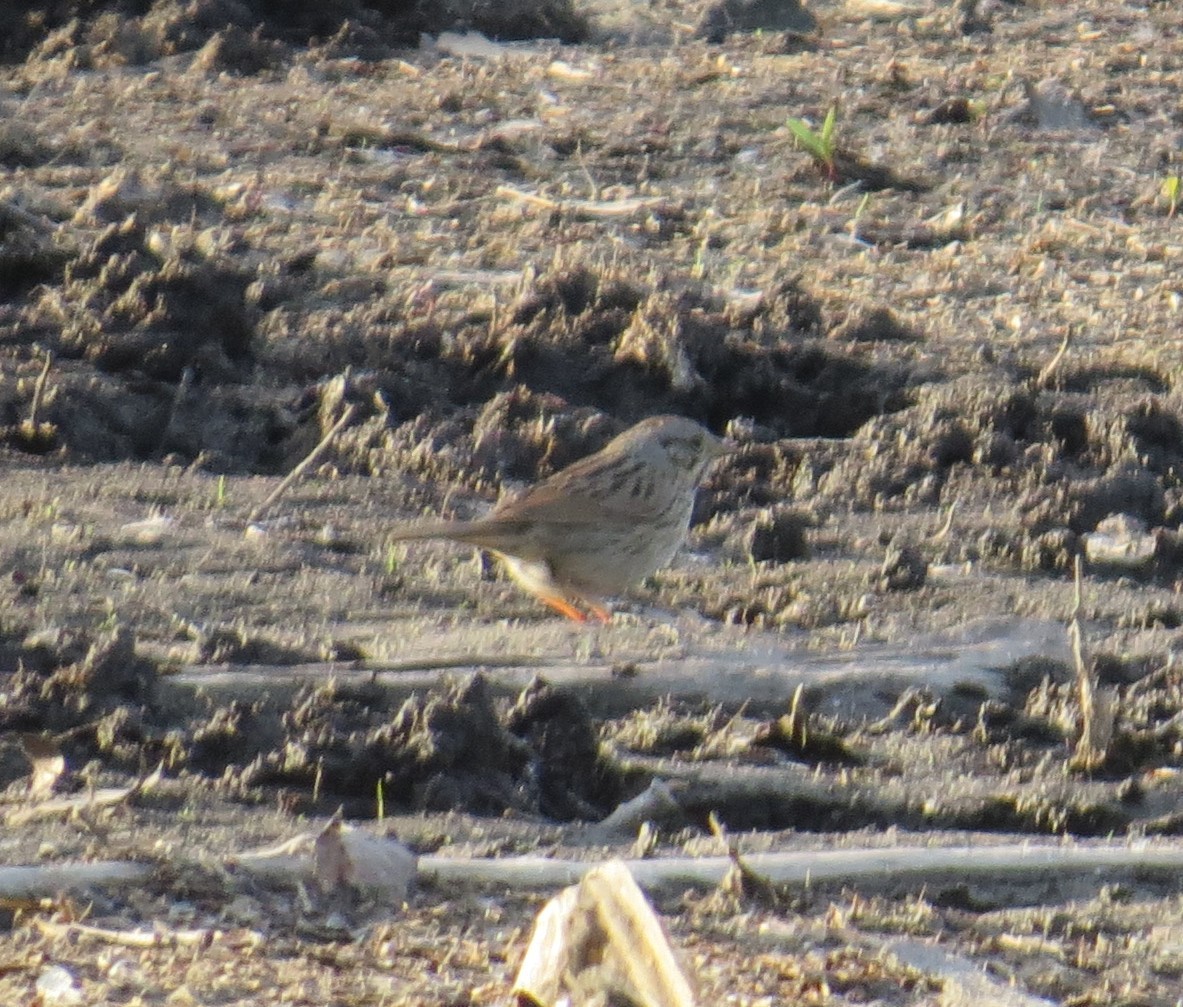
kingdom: Animalia
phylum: Chordata
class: Aves
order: Passeriformes
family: Passerellidae
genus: Melospiza
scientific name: Melospiza lincolnii
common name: Lincoln's sparrow
